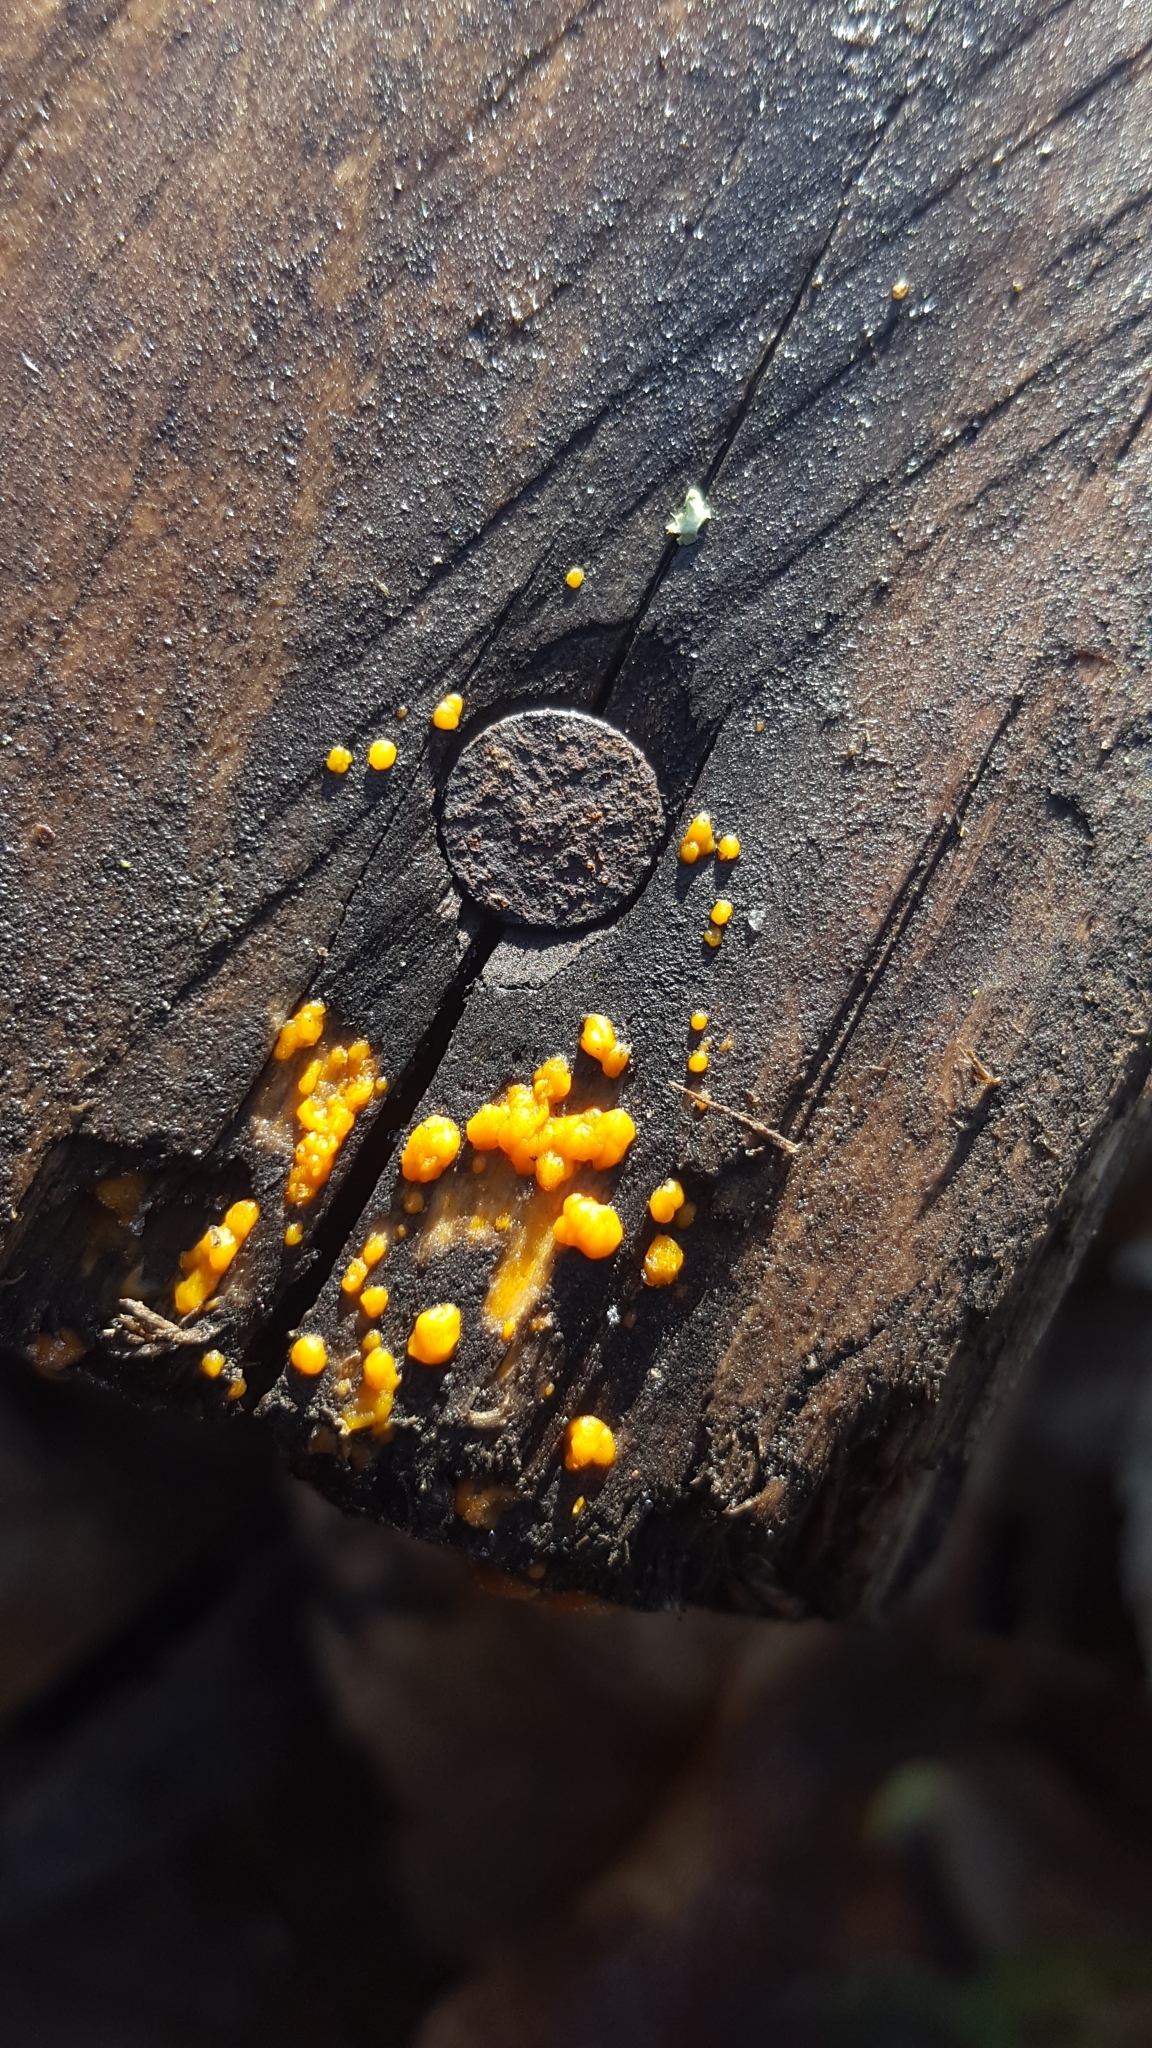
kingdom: Fungi
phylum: Basidiomycota
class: Dacrymycetes
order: Dacrymycetales
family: Dacrymycetaceae
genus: Dacrymyces
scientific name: Dacrymyces stillatus
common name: Common jelly spot
